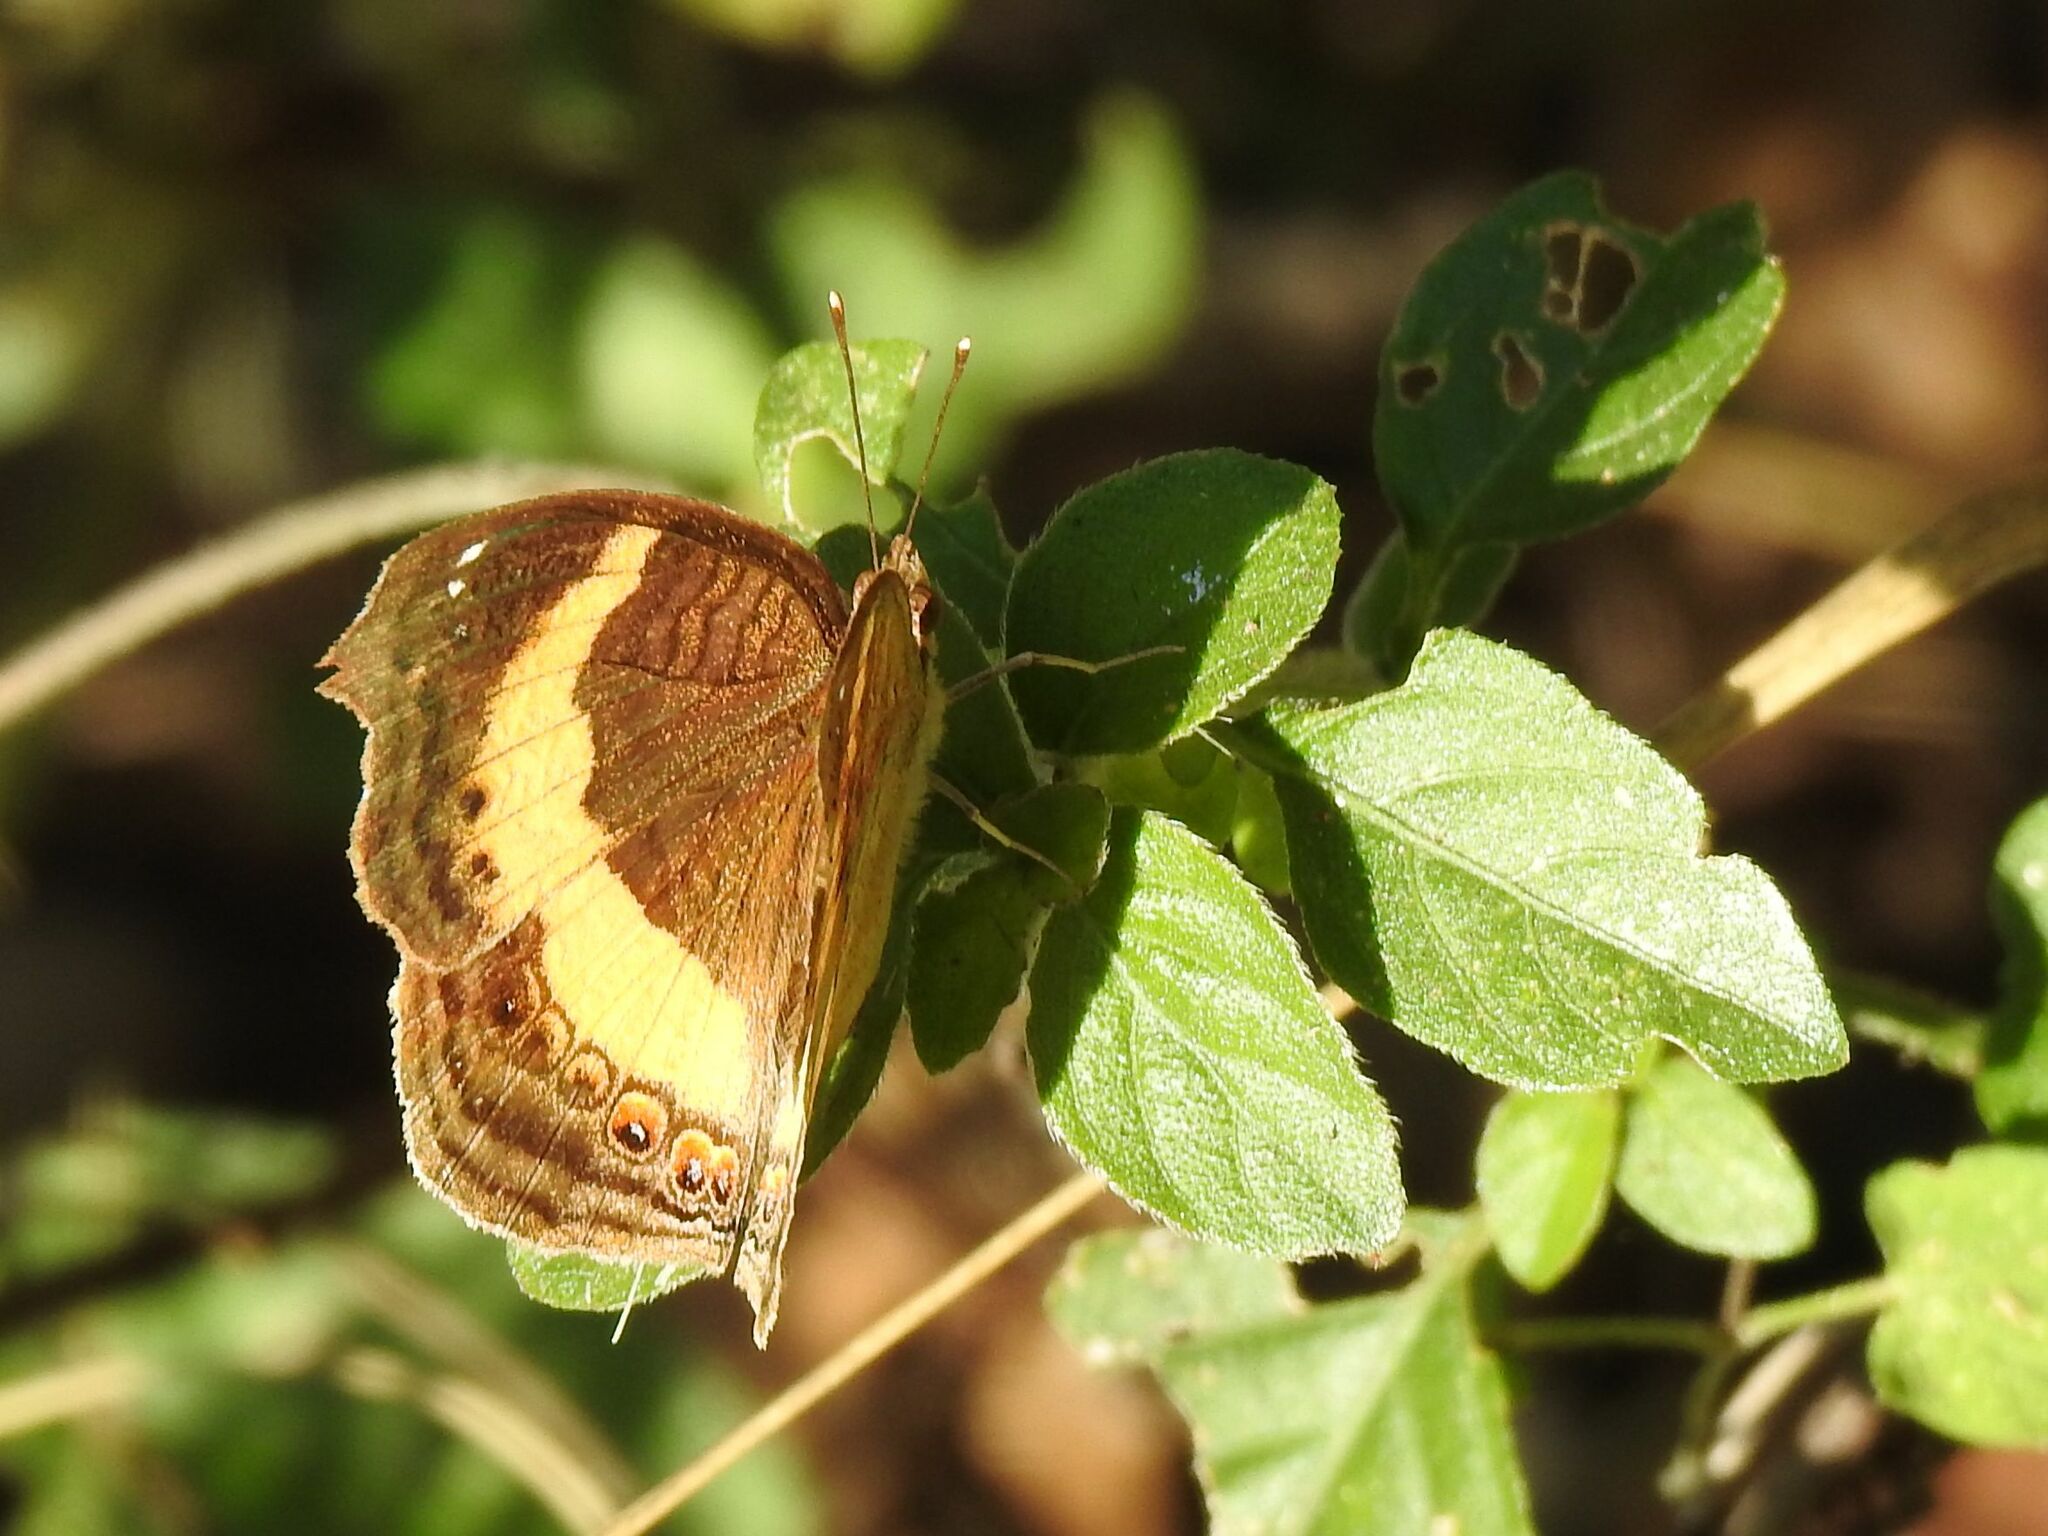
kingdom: Animalia
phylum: Arthropoda
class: Insecta
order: Lepidoptera
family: Nymphalidae
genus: Junonia
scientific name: Junonia terea
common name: Soldier pansy
